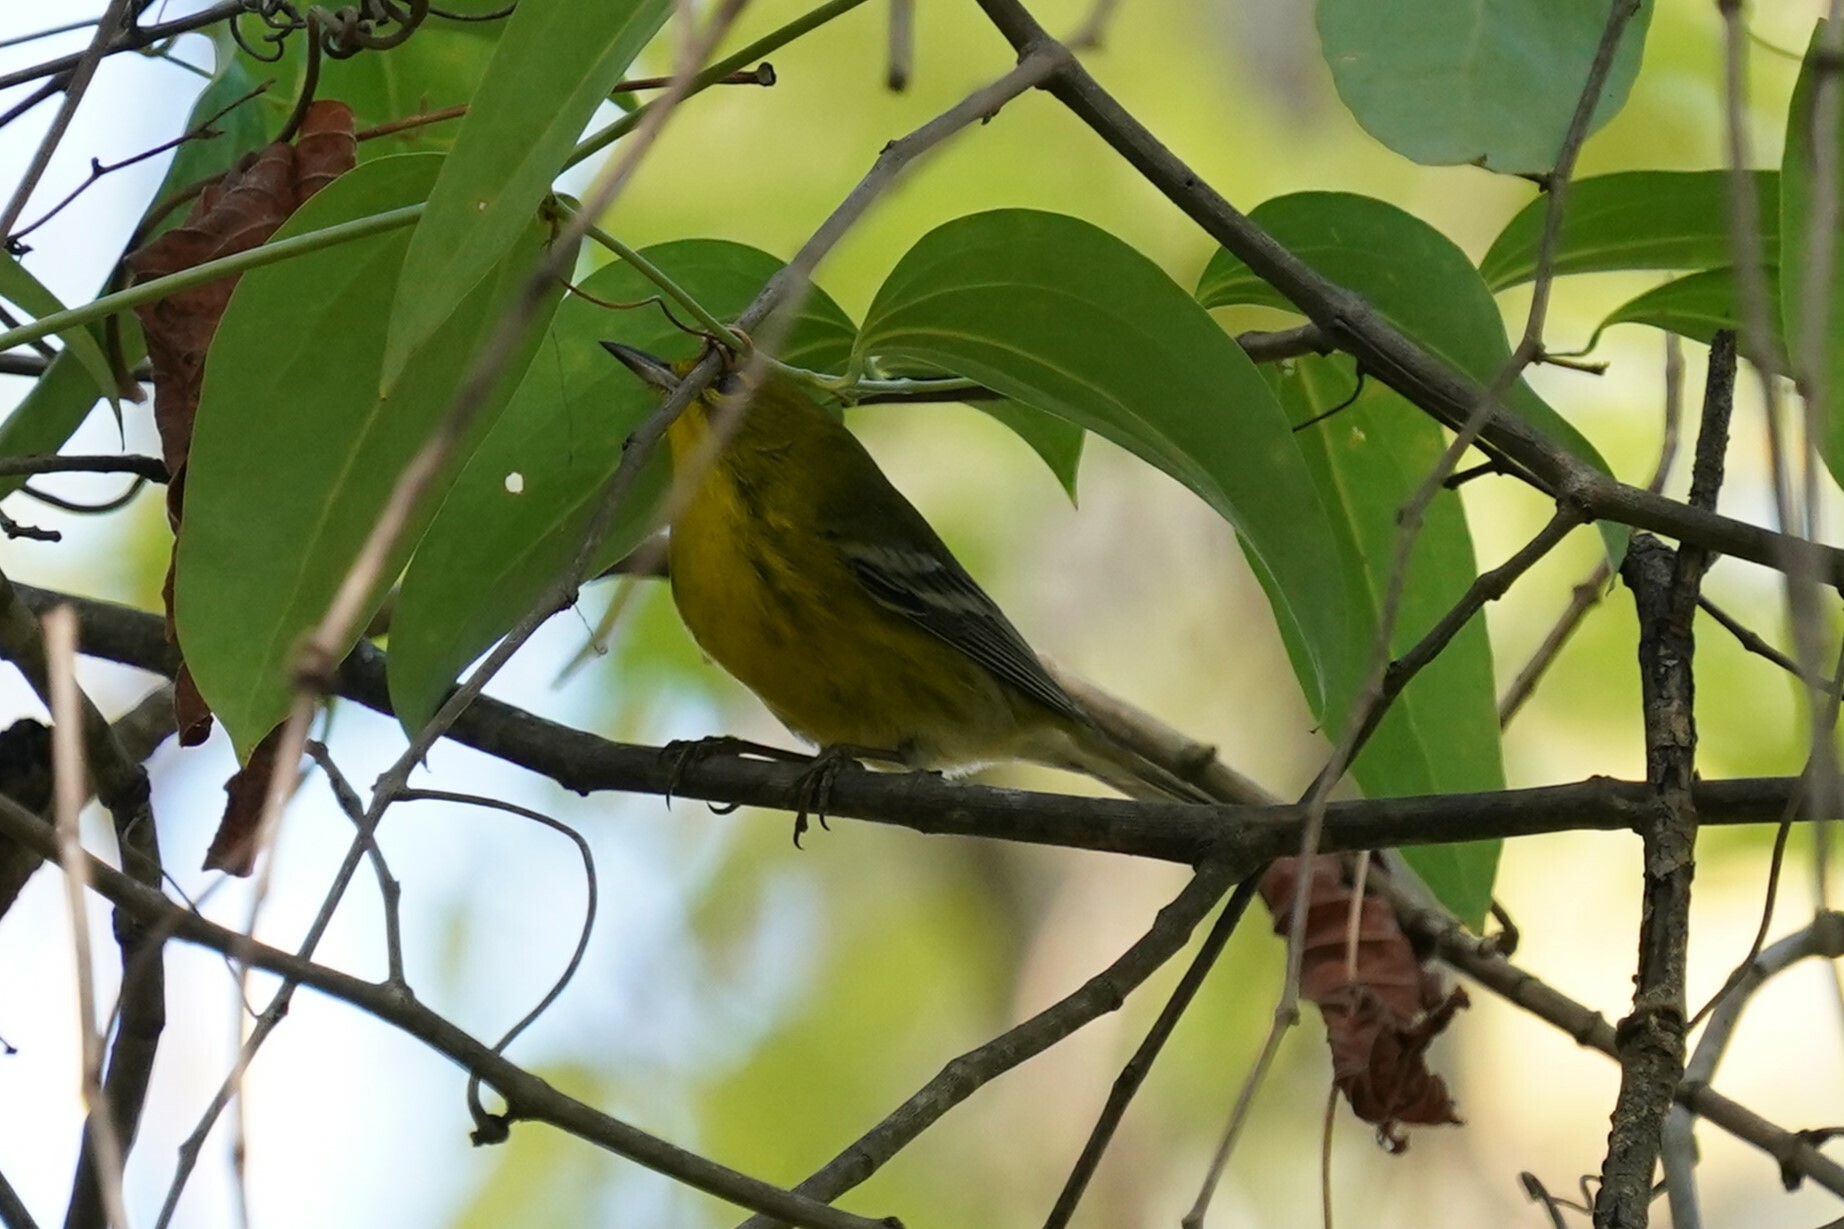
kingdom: Animalia
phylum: Chordata
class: Aves
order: Passeriformes
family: Parulidae
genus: Setophaga
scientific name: Setophaga pinus
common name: Pine warbler
